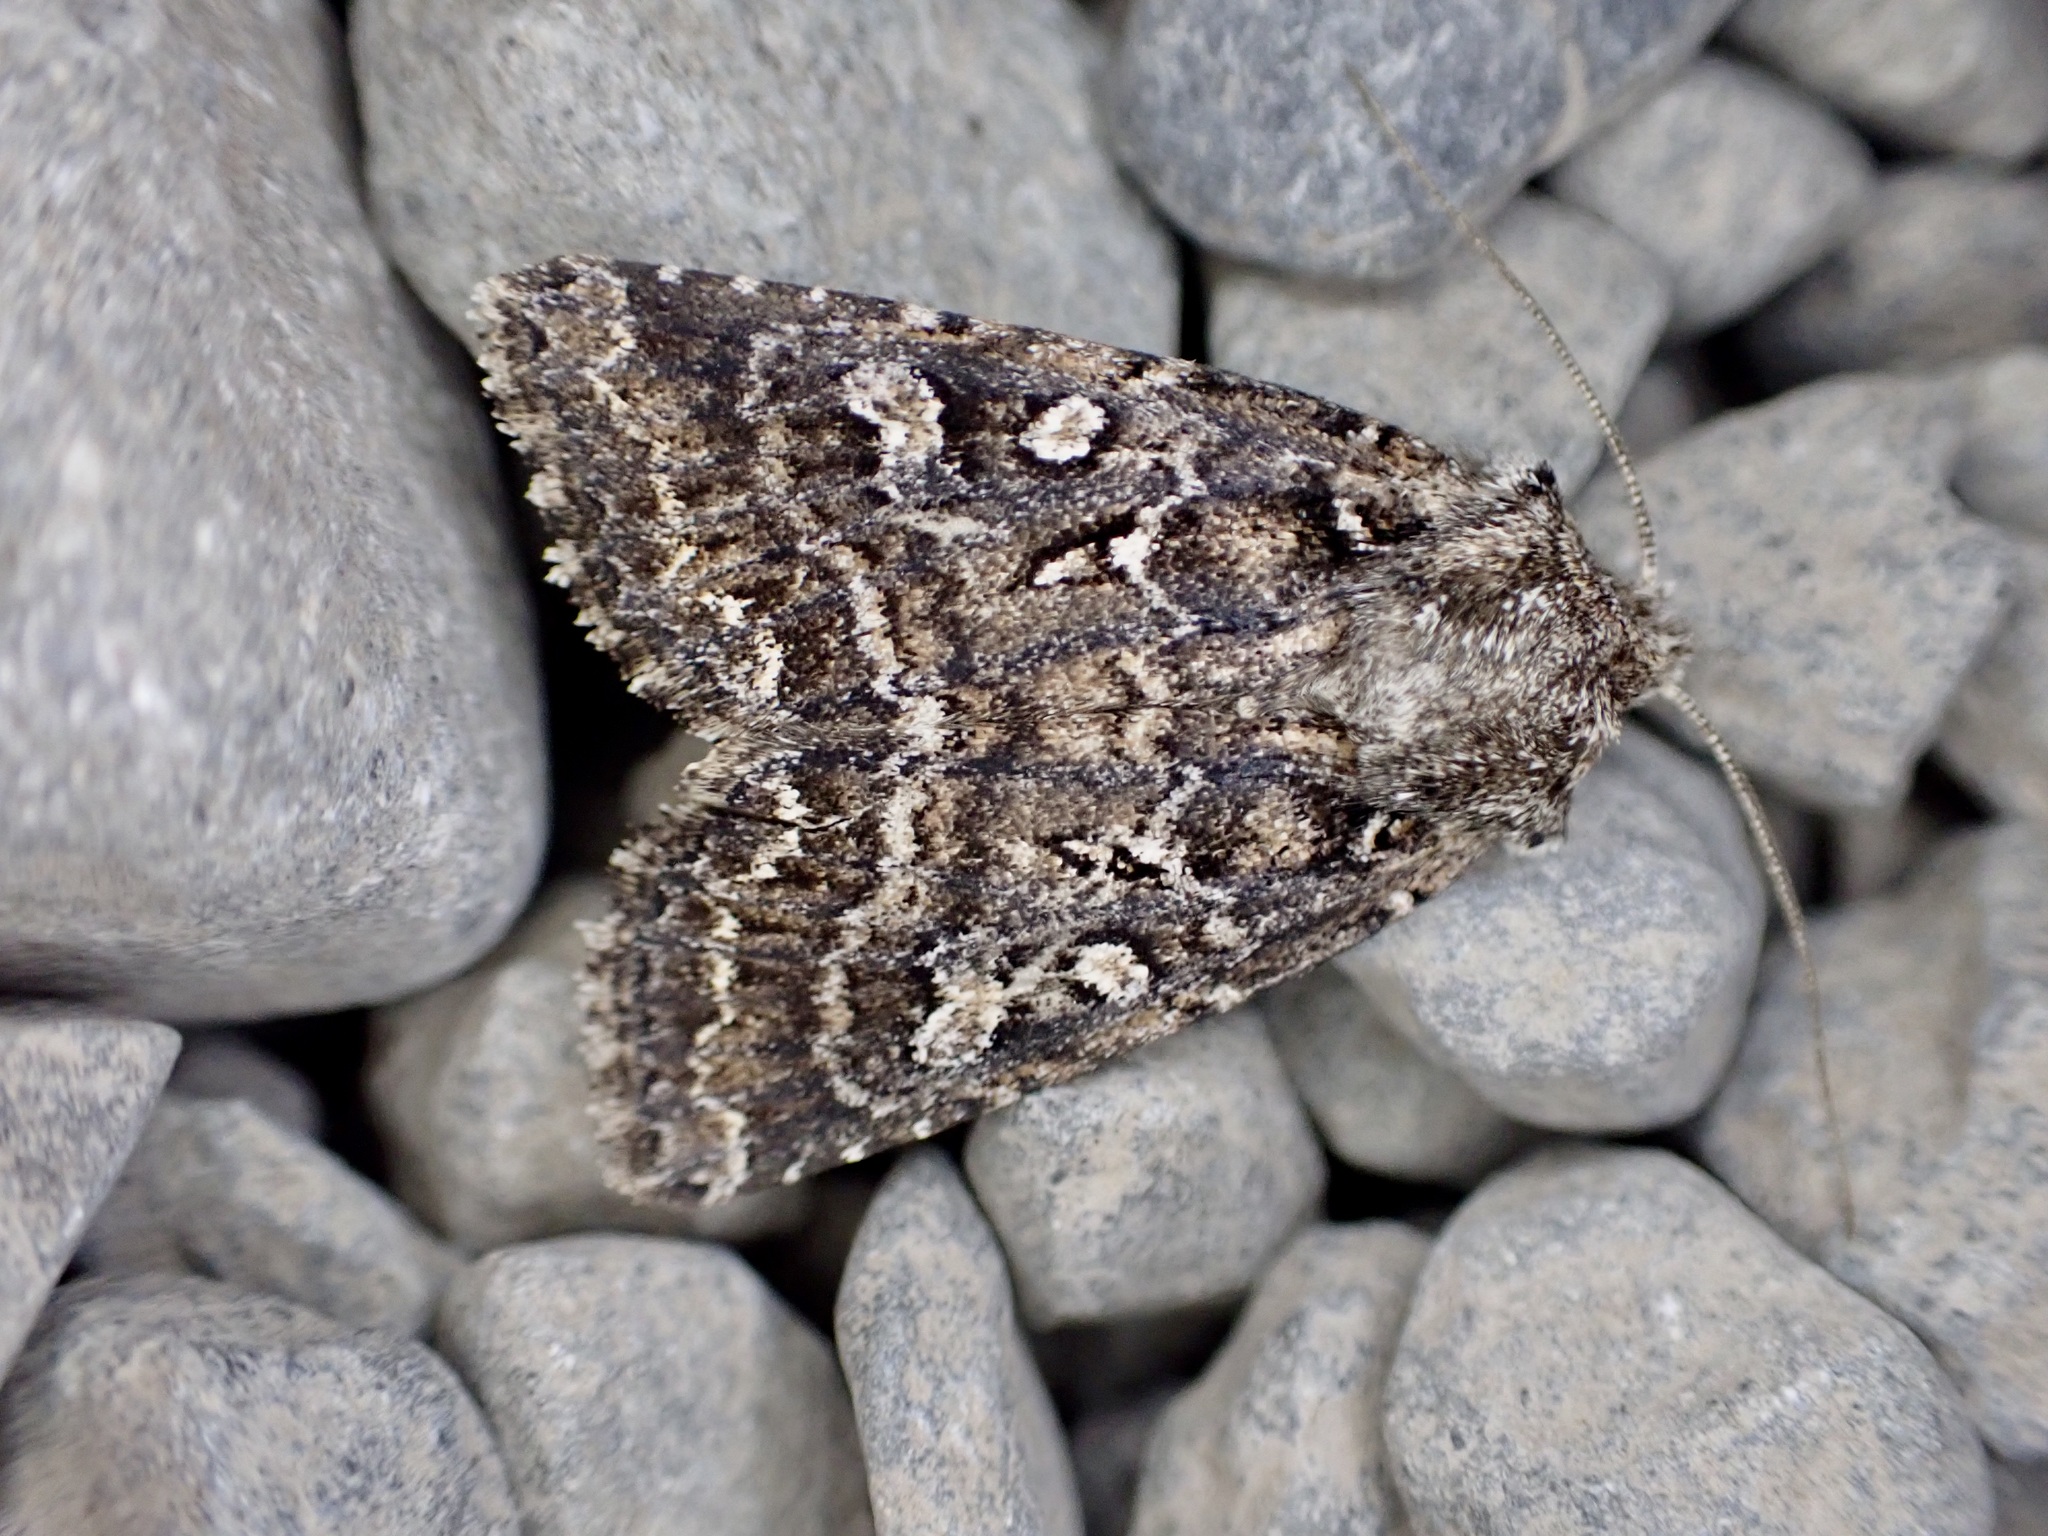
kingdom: Animalia
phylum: Arthropoda
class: Insecta
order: Lepidoptera
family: Noctuidae
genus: Ichneutica
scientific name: Ichneutica lithias
